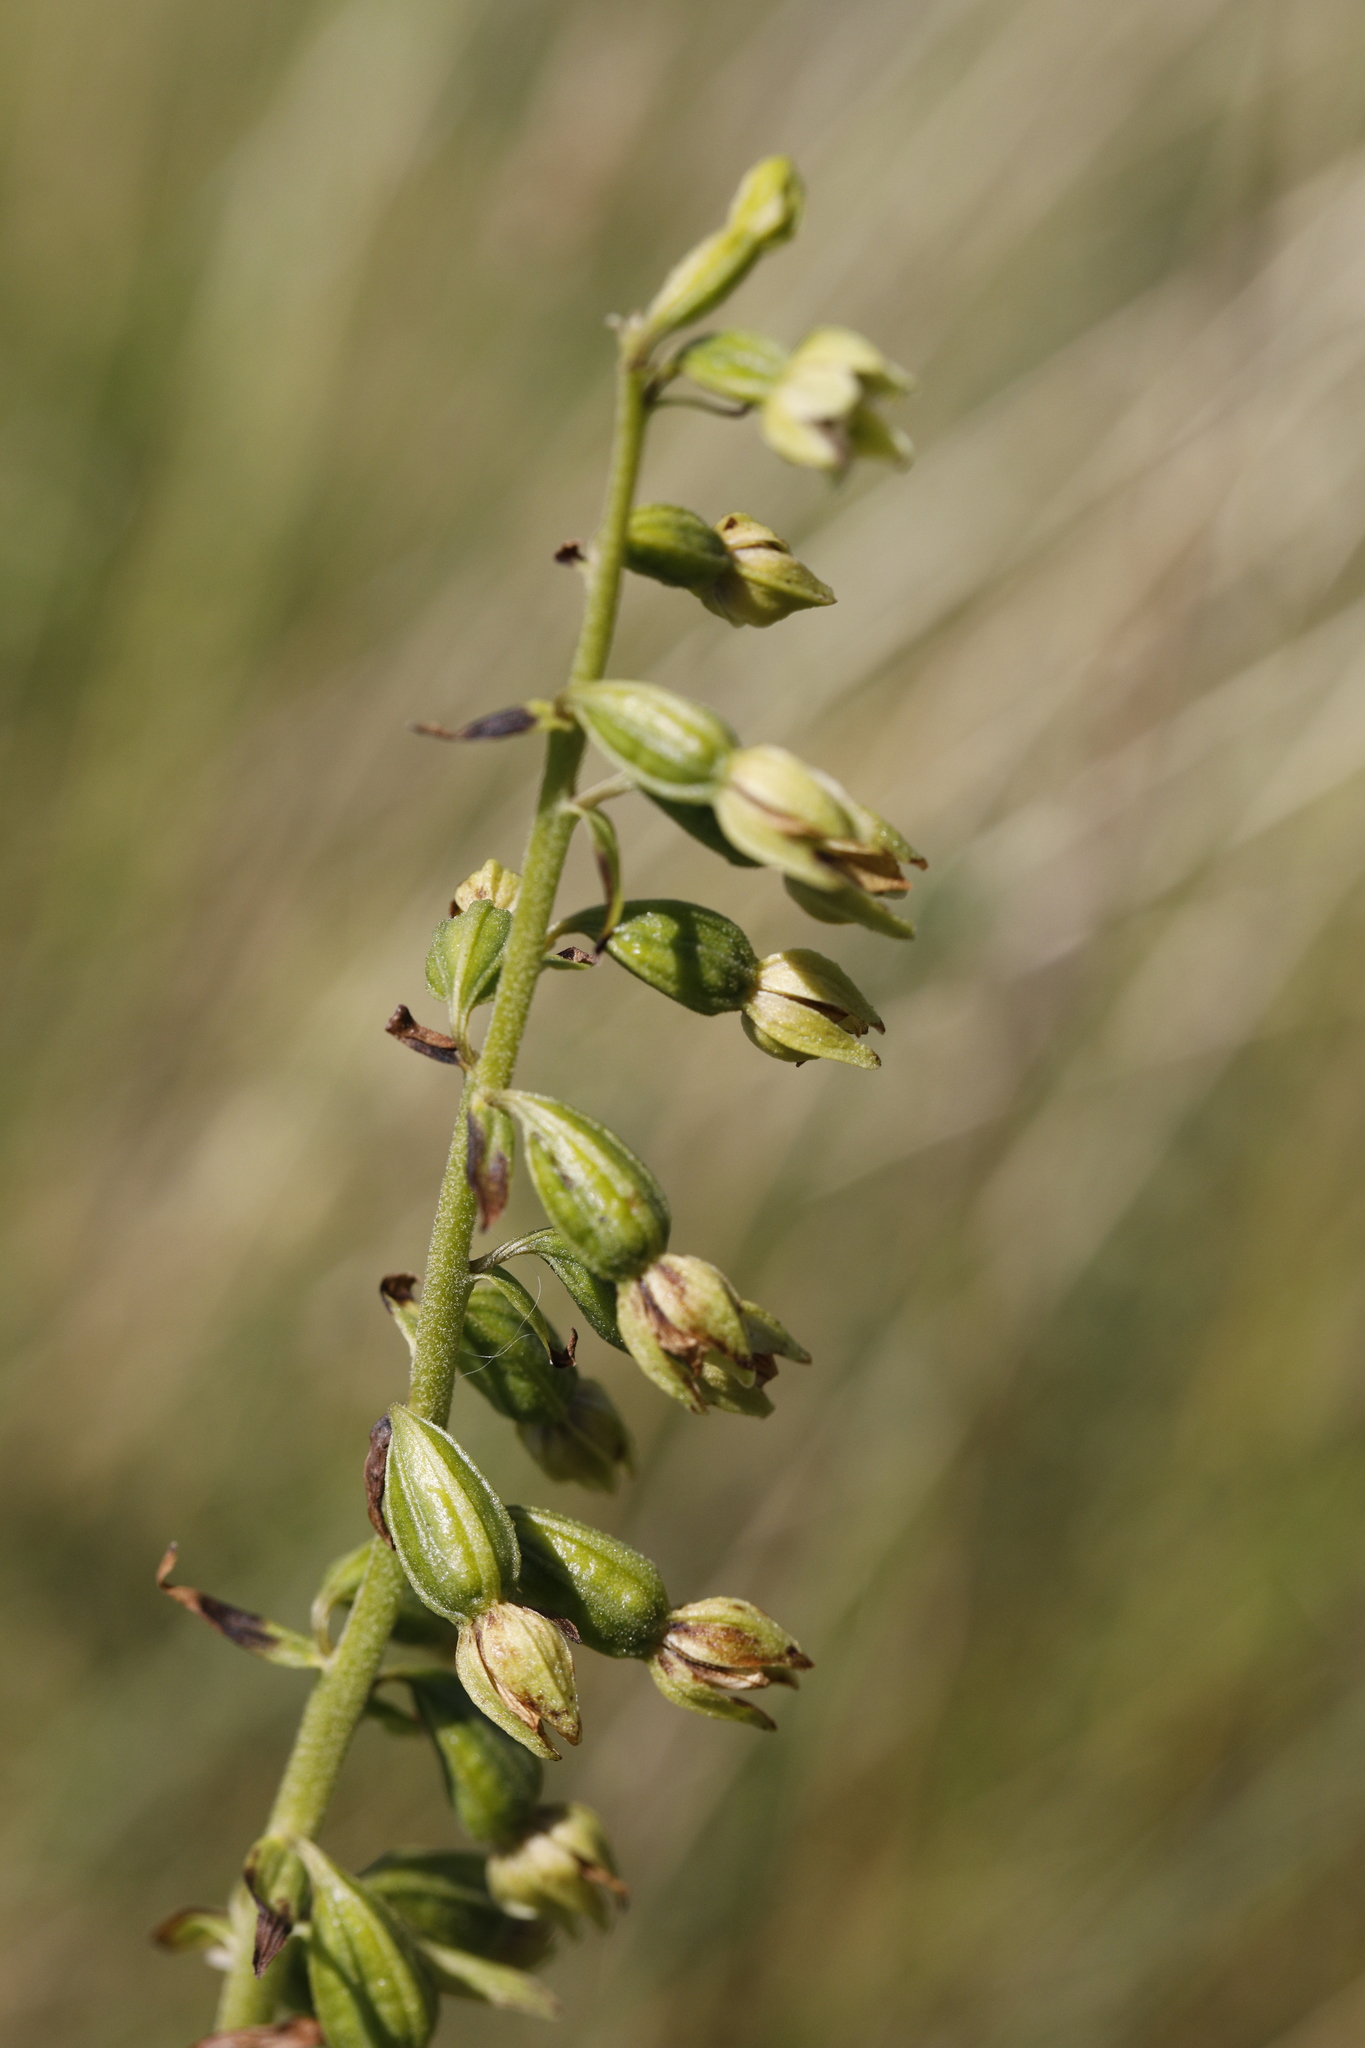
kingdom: Plantae
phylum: Tracheophyta
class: Liliopsida
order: Asparagales
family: Orchidaceae
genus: Epipactis
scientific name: Epipactis dunensis
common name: Dune helleborine
